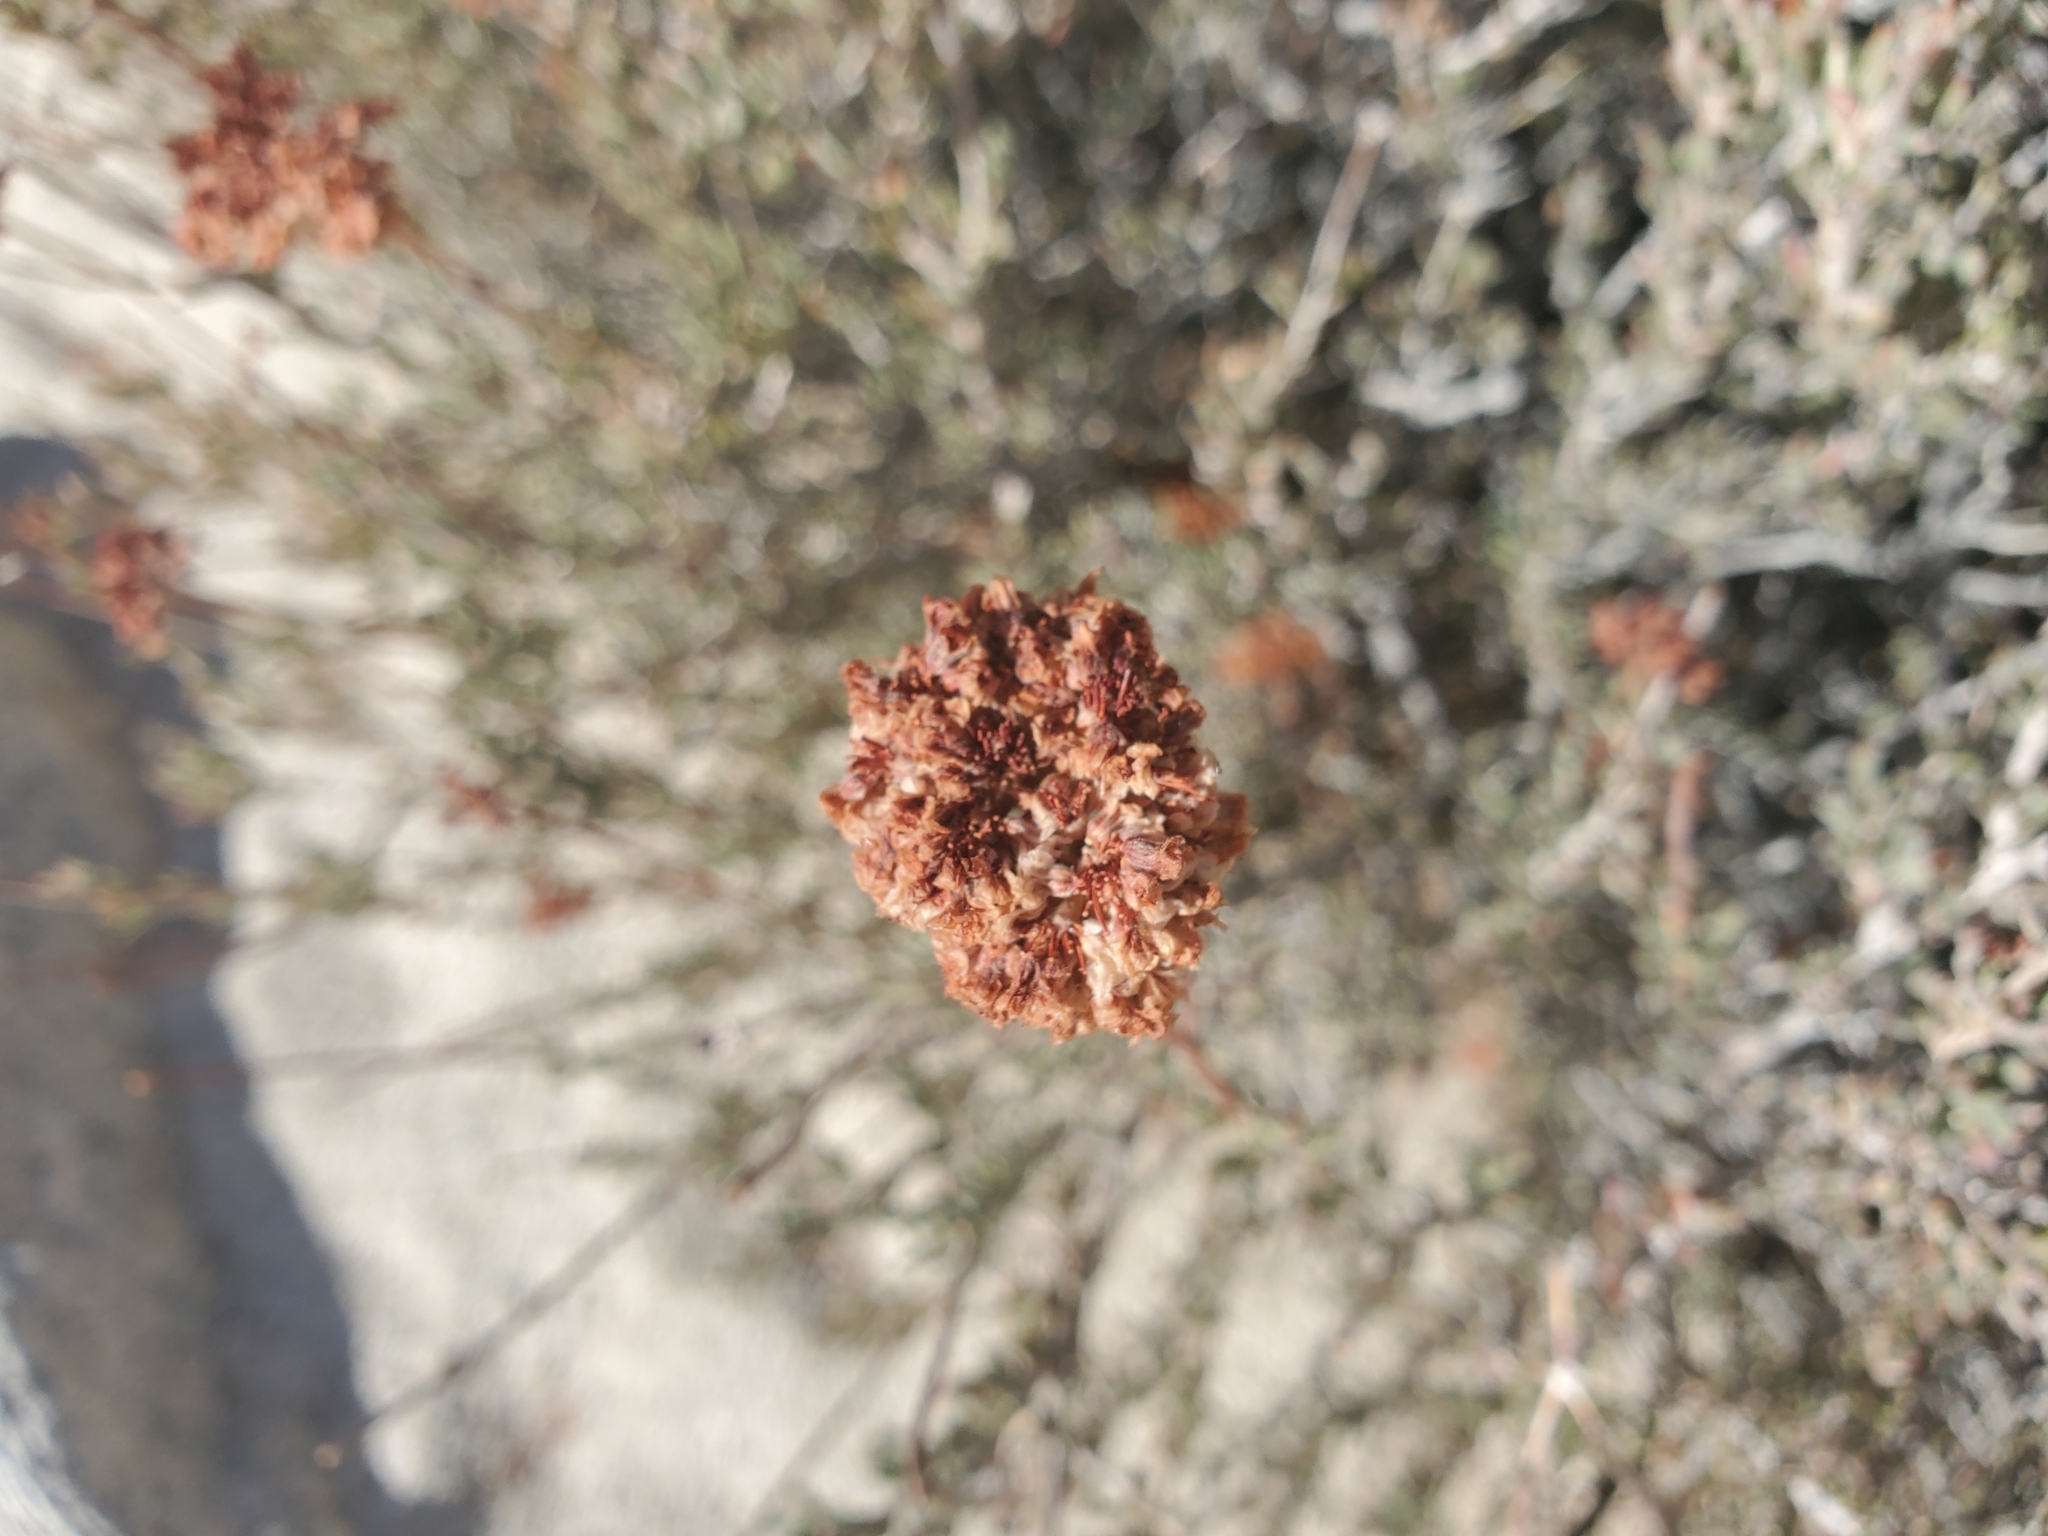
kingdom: Plantae
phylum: Tracheophyta
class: Magnoliopsida
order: Caryophyllales
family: Polygonaceae
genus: Eriogonum
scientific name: Eriogonum fasciculatum
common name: California wild buckwheat
